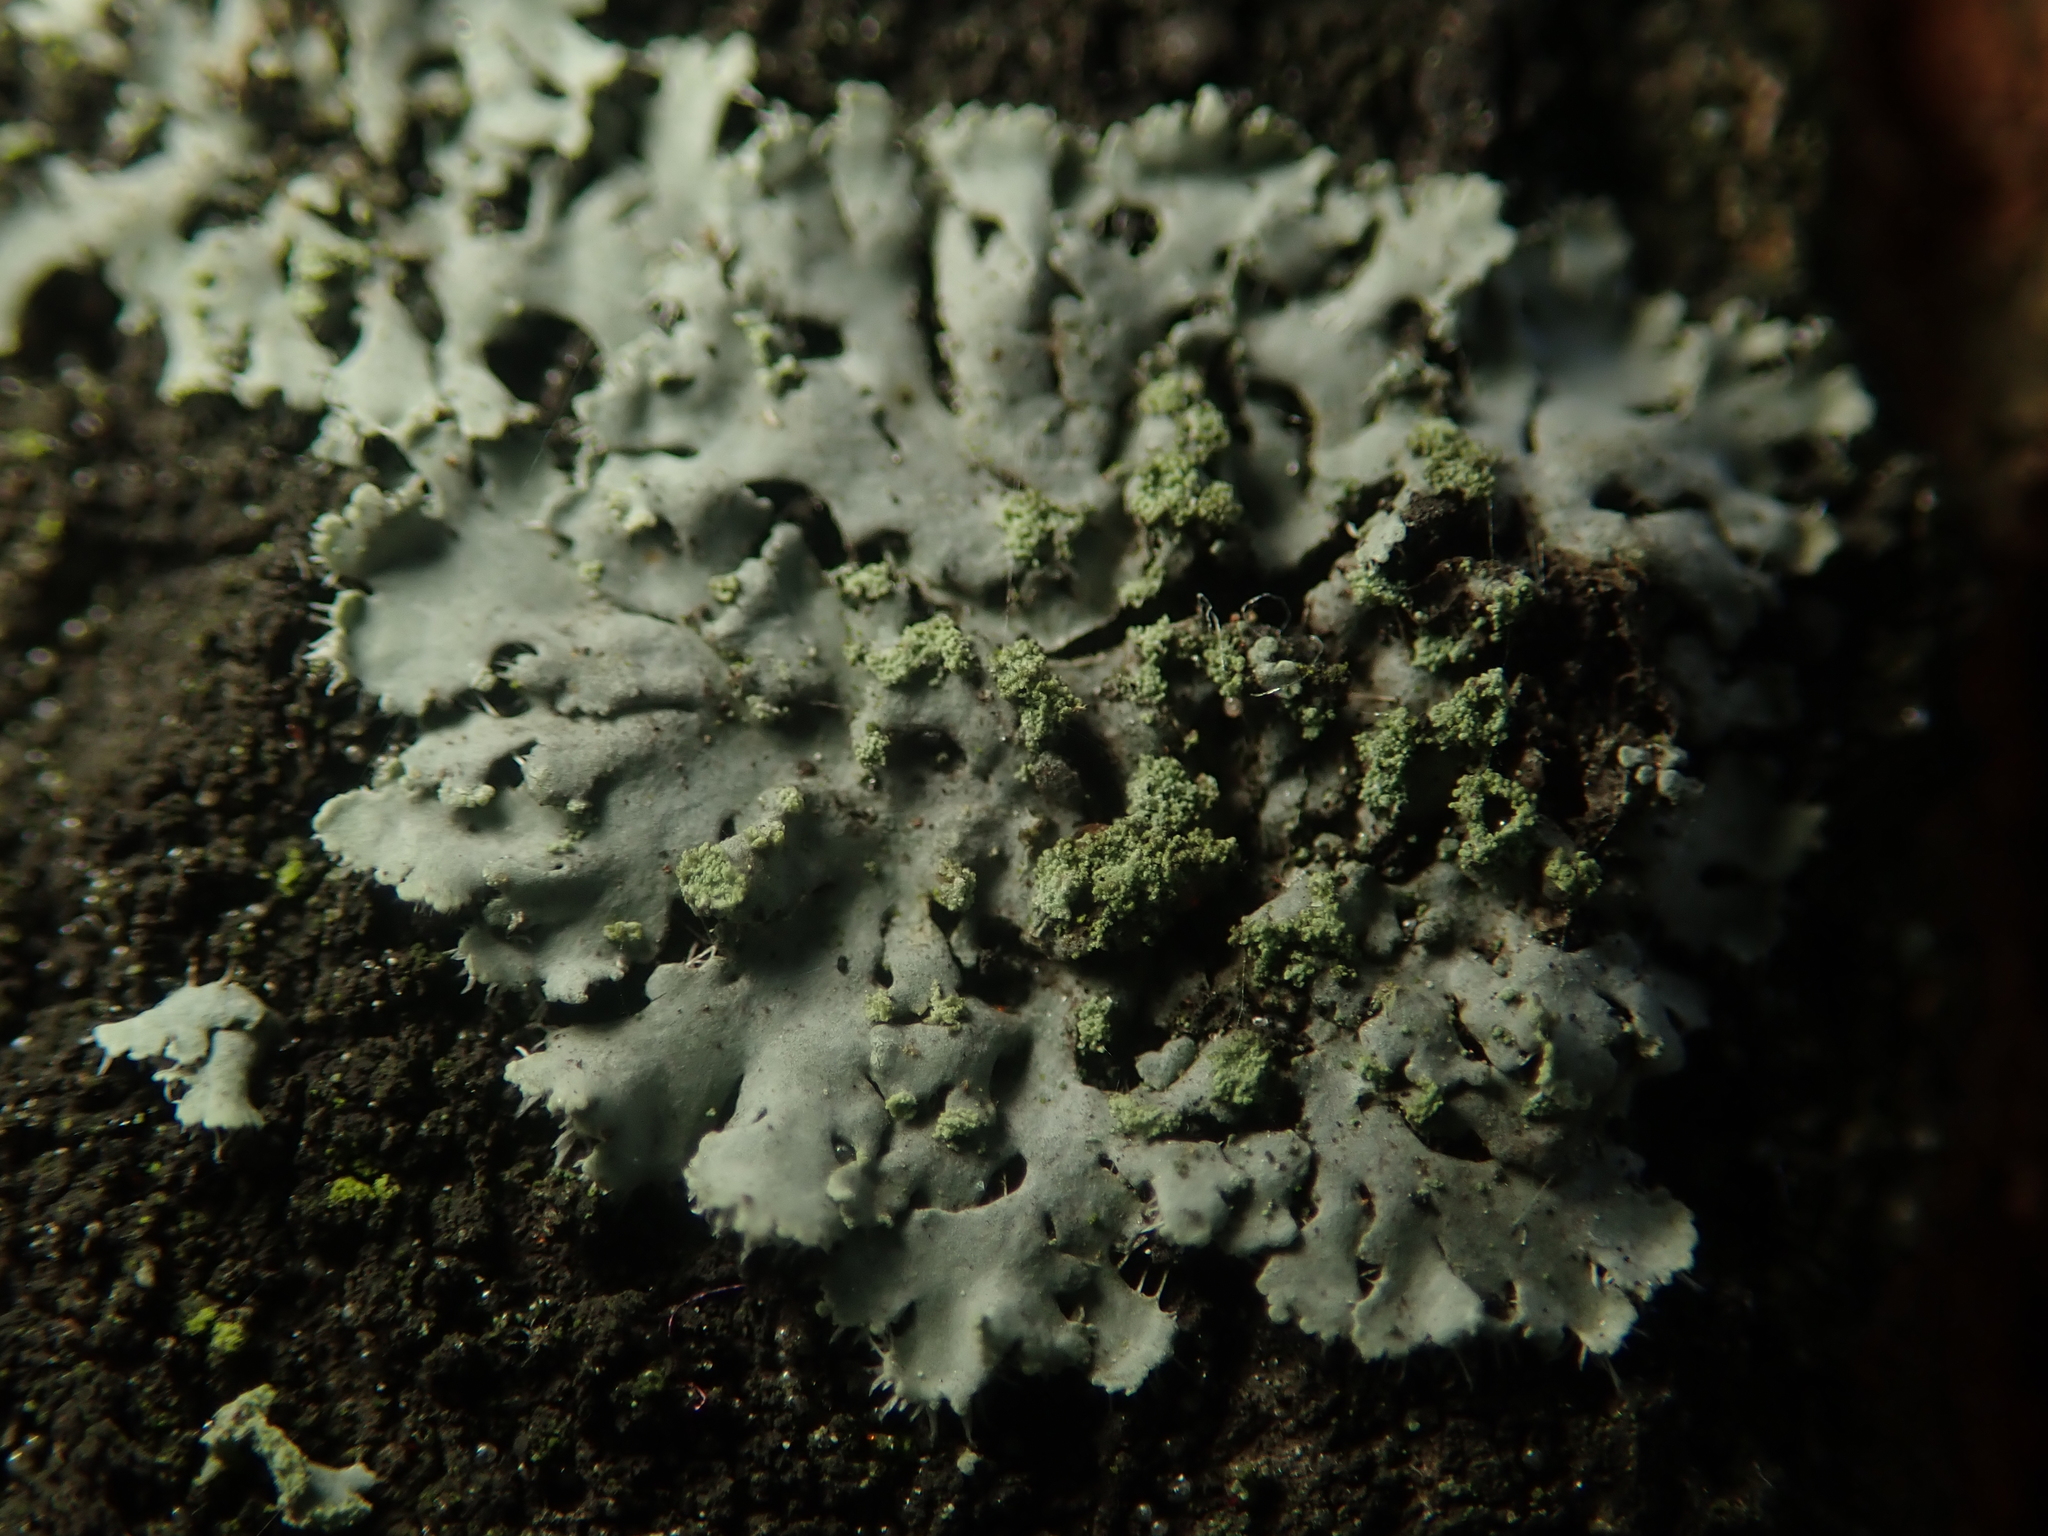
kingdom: Fungi
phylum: Ascomycota
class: Lecanoromycetes
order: Caliciales
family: Physciaceae
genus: Phaeophyscia
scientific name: Phaeophyscia orbicularis
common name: Mealy shadow lichen
